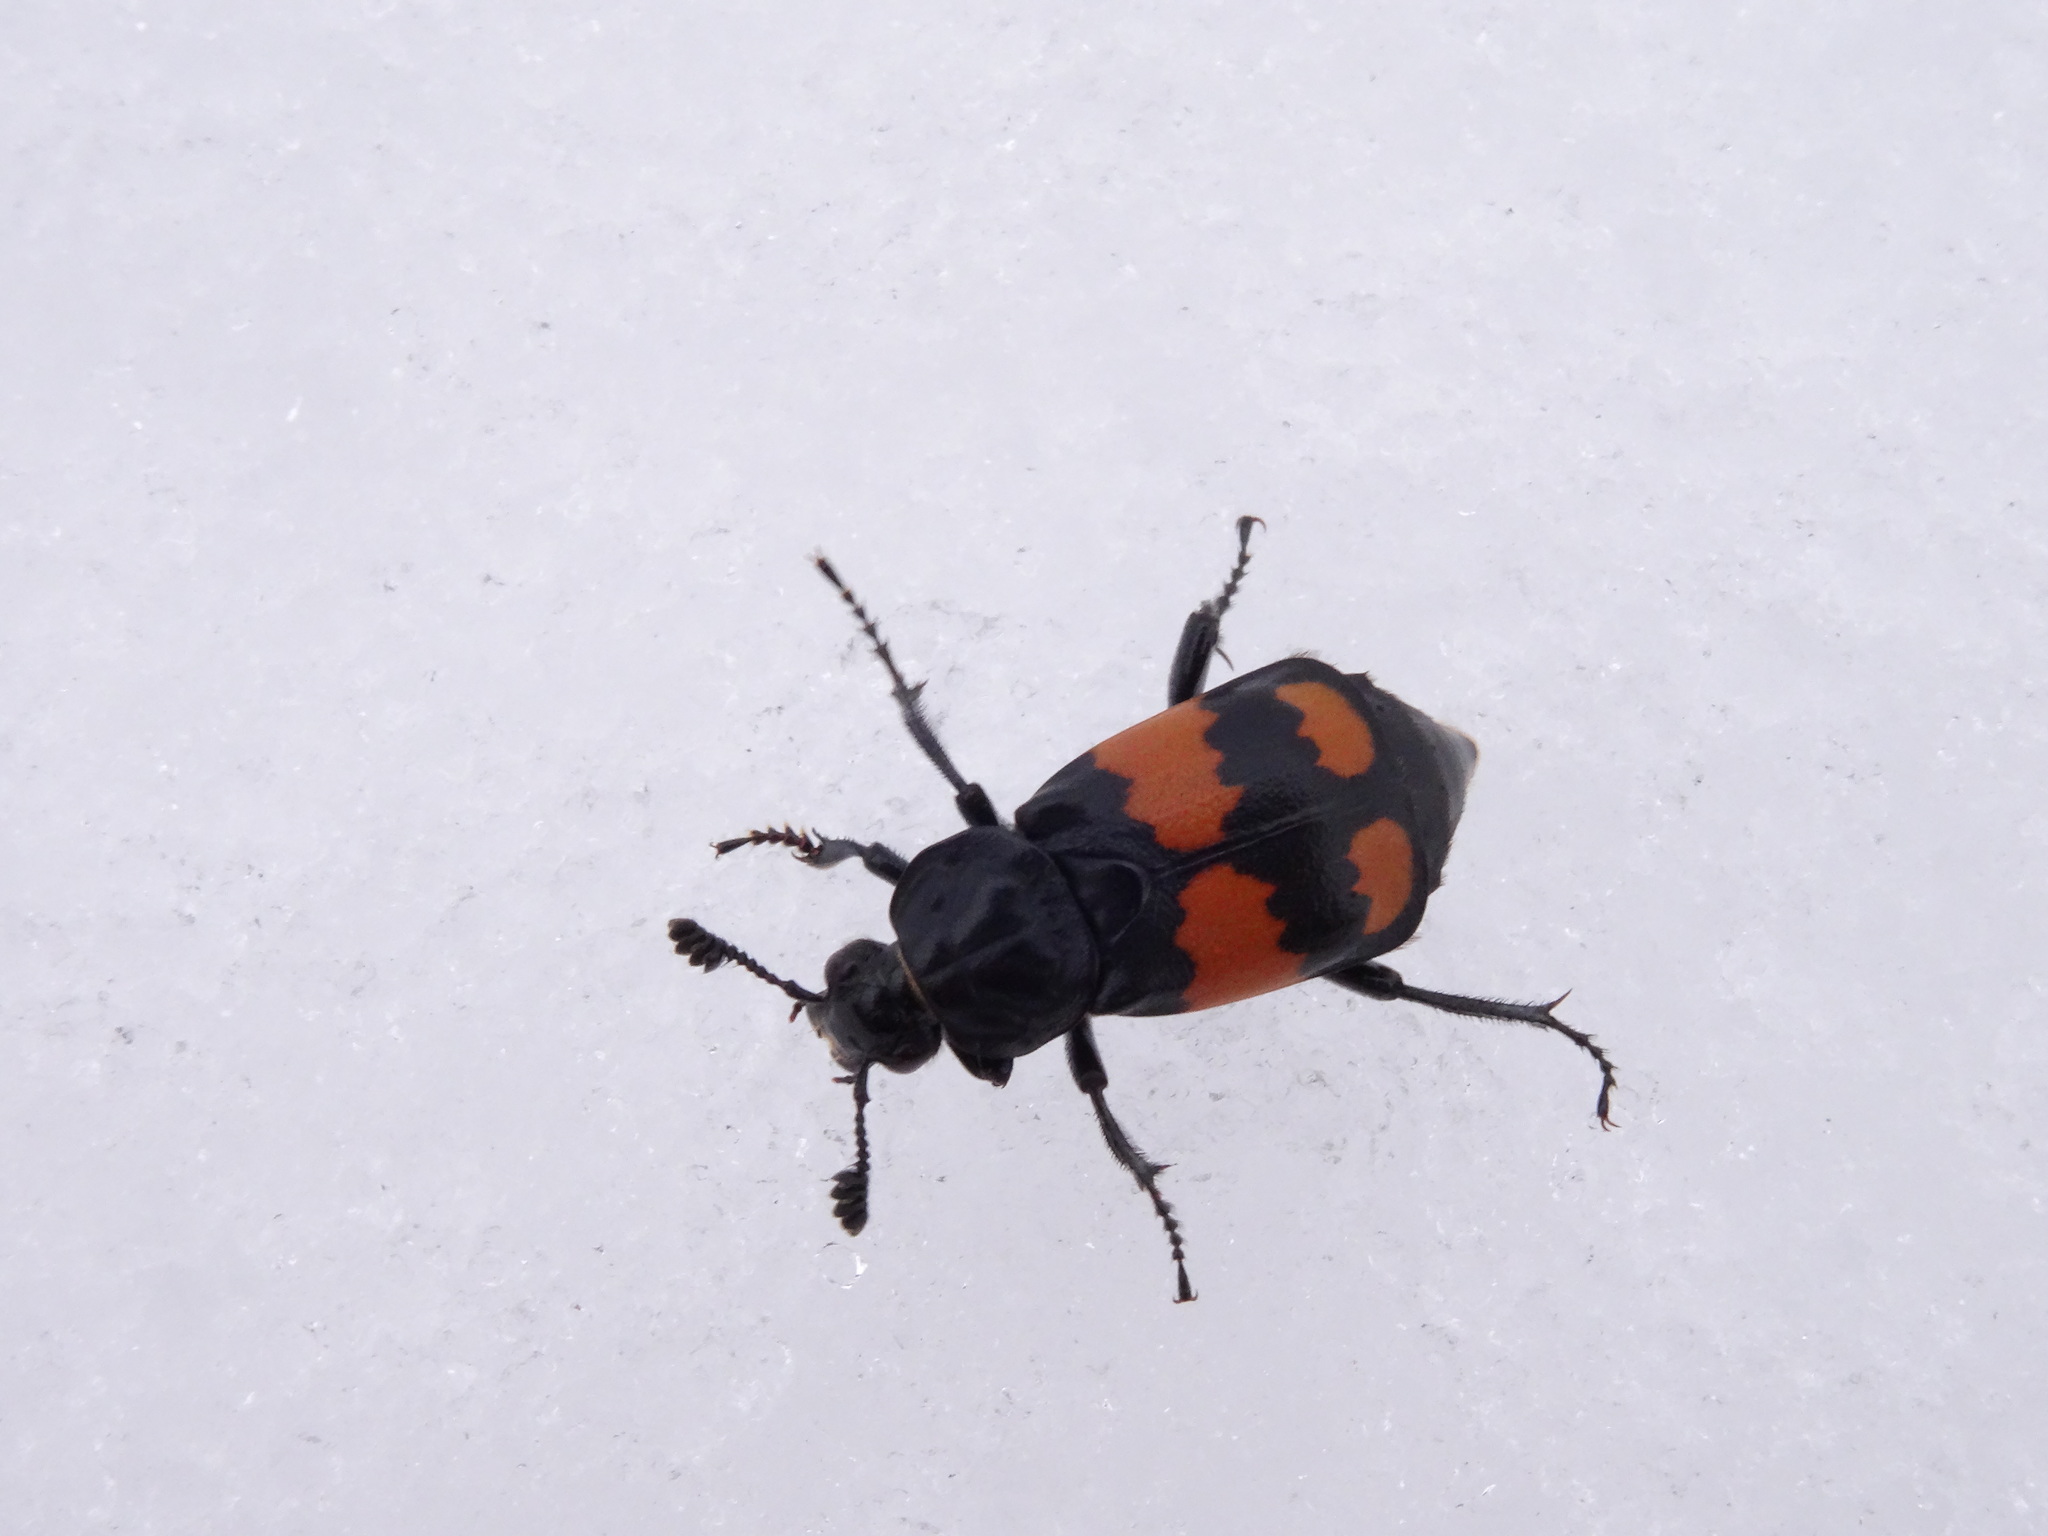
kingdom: Animalia
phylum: Arthropoda
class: Insecta
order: Coleoptera
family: Staphylinidae
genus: Nicrophorus
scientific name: Nicrophorus vespilloides
